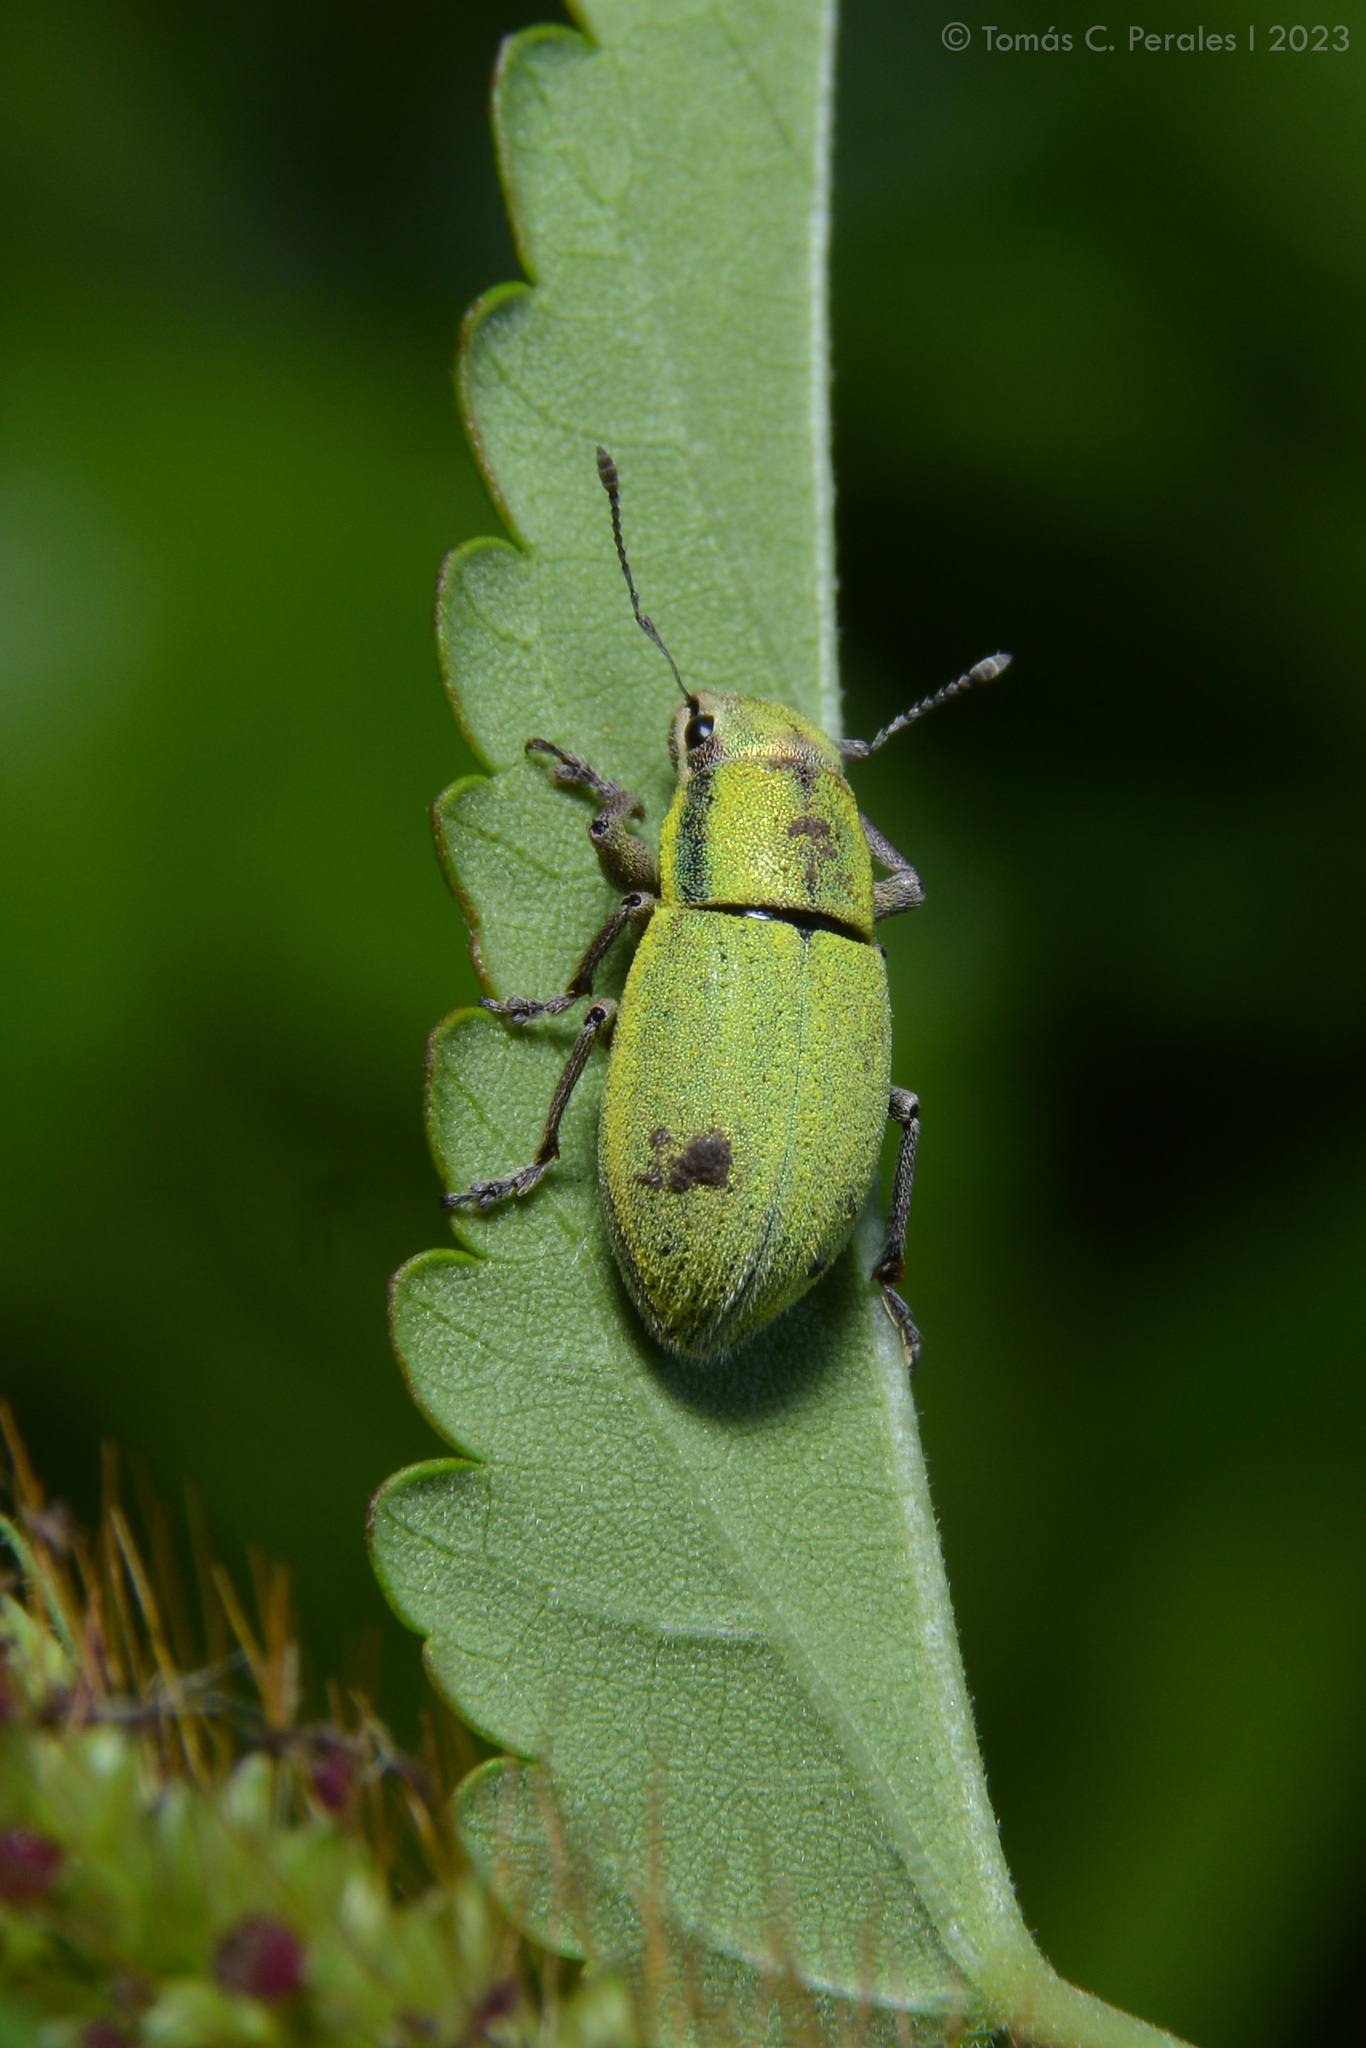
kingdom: Animalia
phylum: Arthropoda
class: Insecta
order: Coleoptera
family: Curculionidae
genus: Pantomorus
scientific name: Pantomorus viridisquamosus
